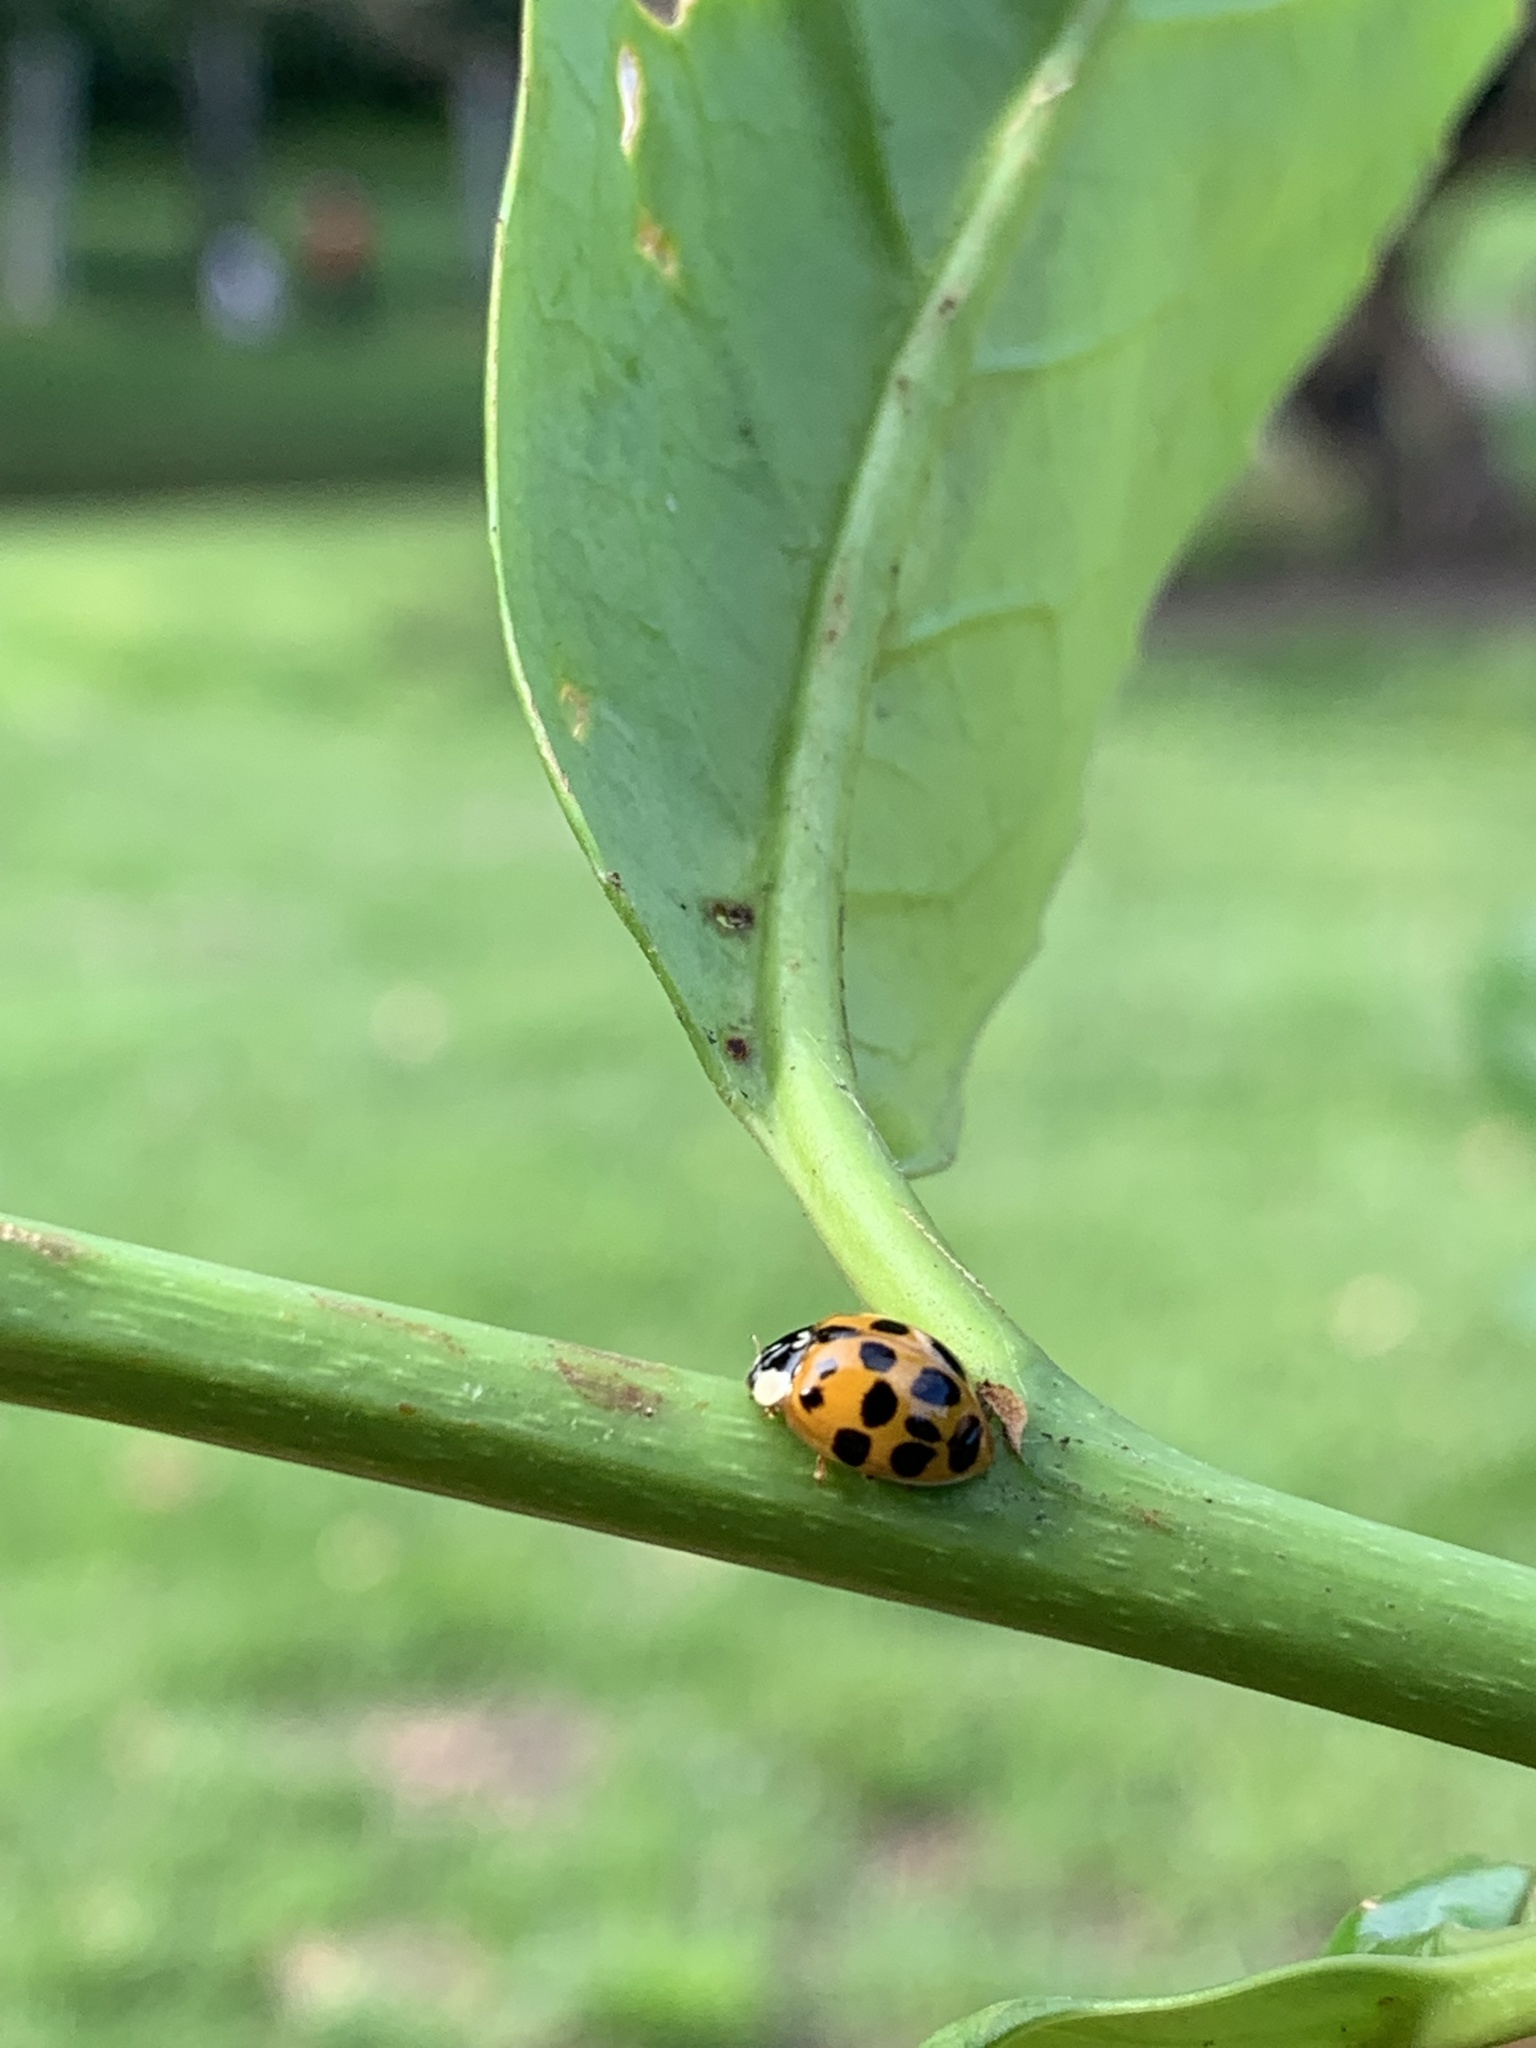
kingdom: Animalia
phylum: Arthropoda
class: Insecta
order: Coleoptera
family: Coccinellidae
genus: Harmonia
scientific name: Harmonia axyridis
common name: Harlequin ladybird
